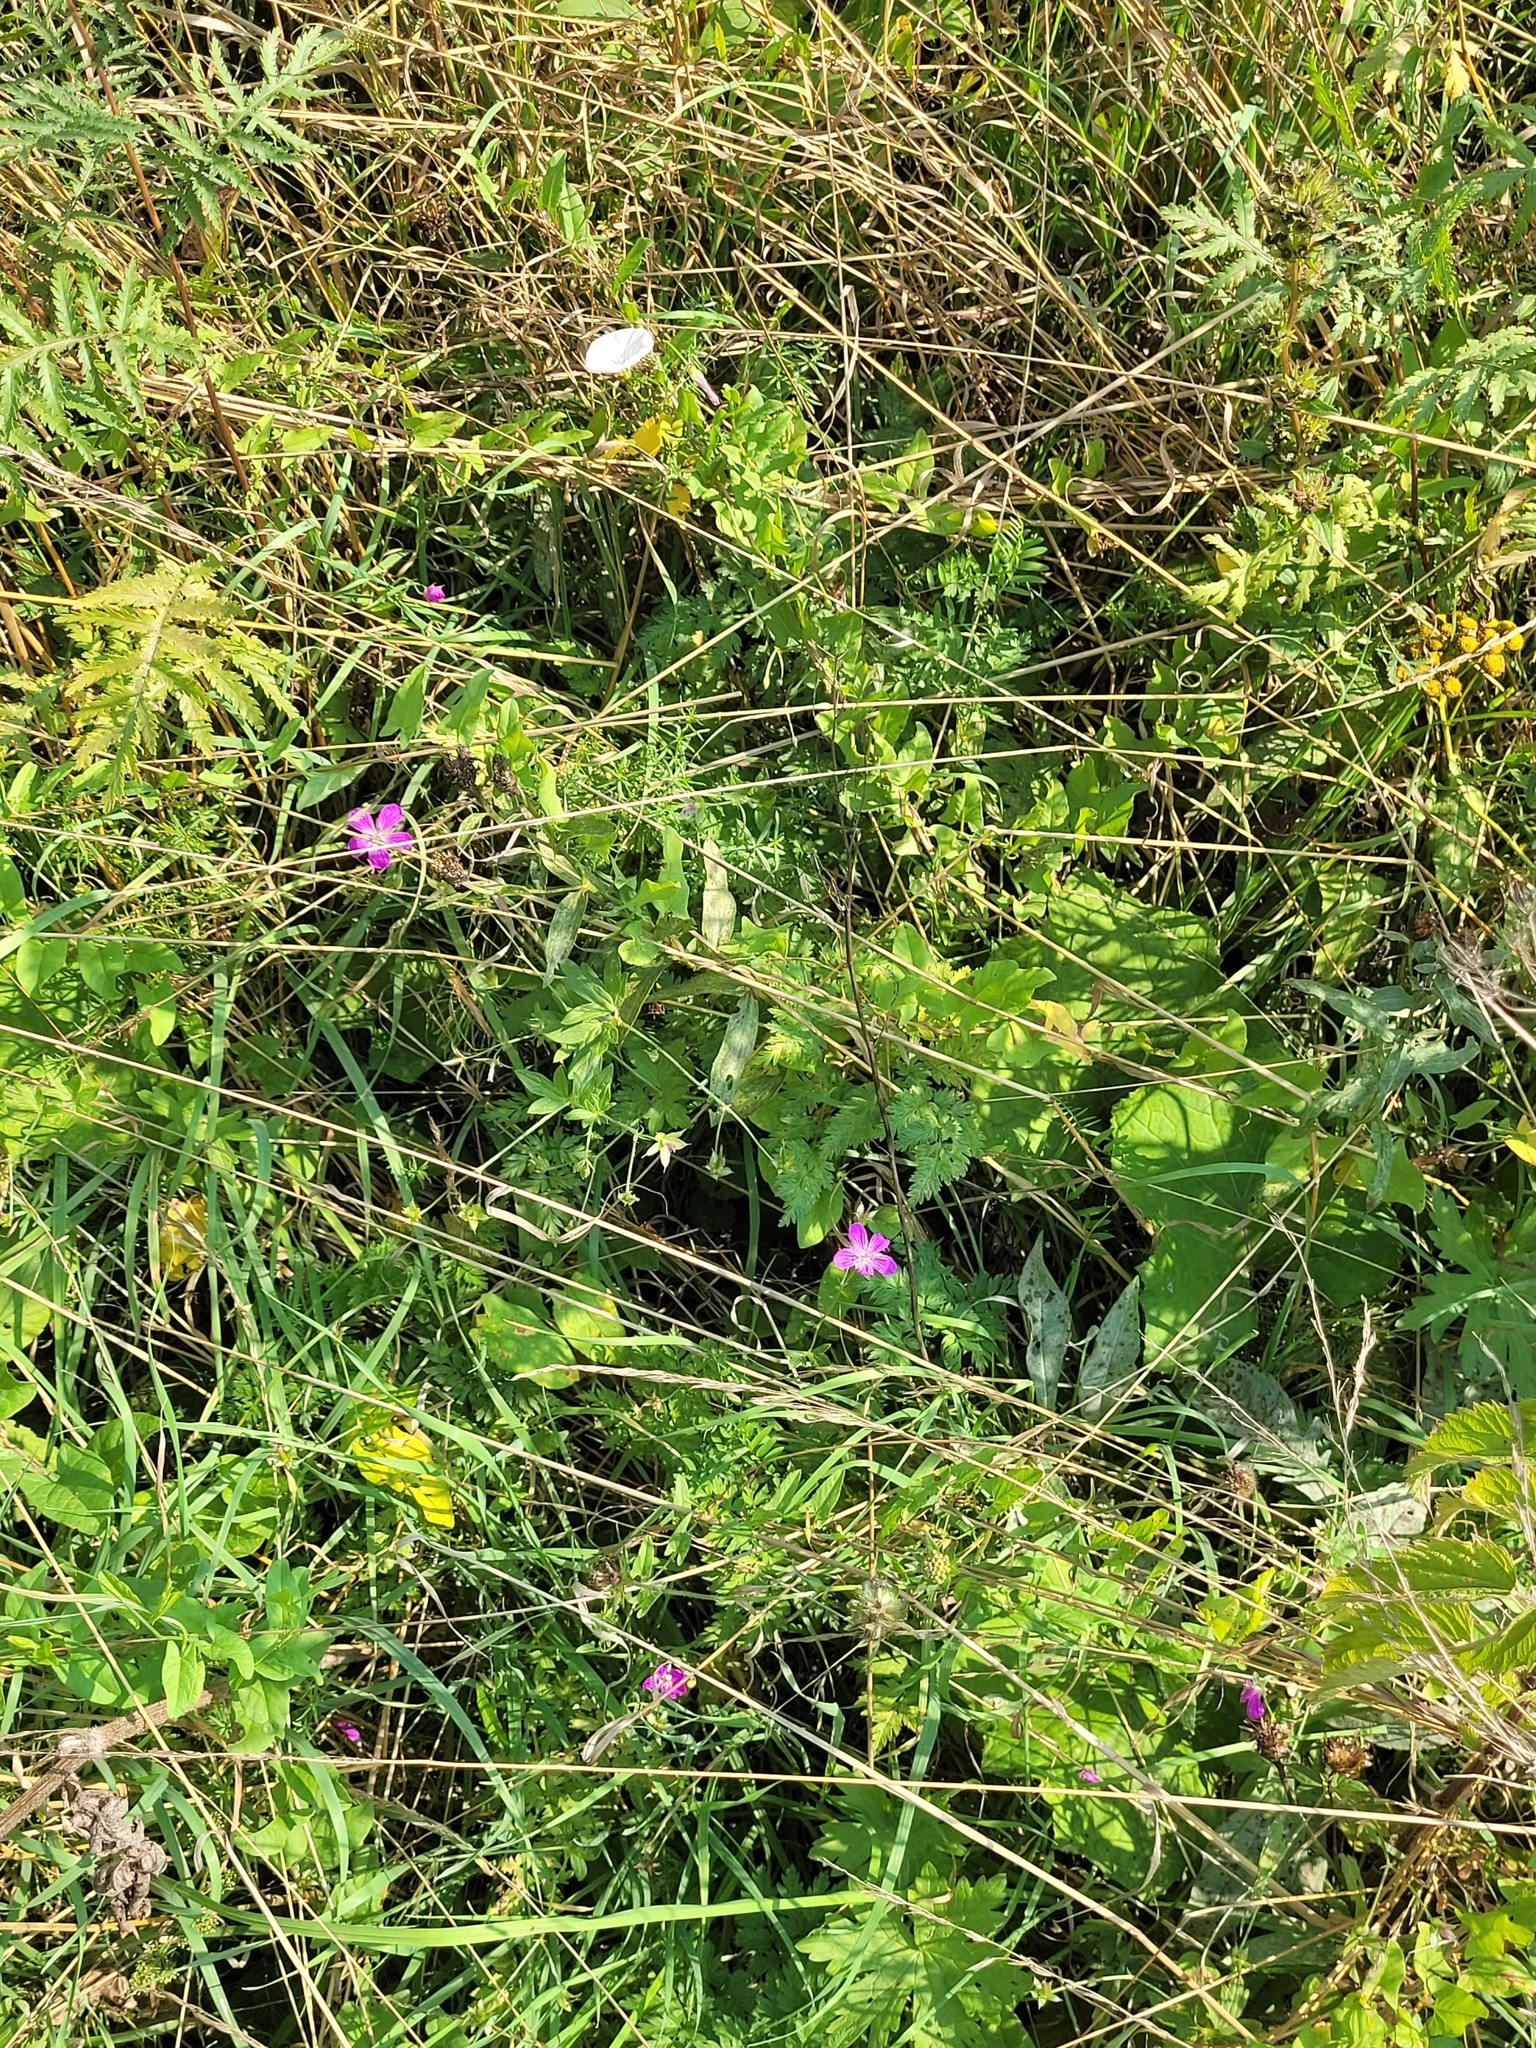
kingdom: Plantae
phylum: Tracheophyta
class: Magnoliopsida
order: Geraniales
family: Geraniaceae
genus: Geranium
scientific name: Geranium palustre
